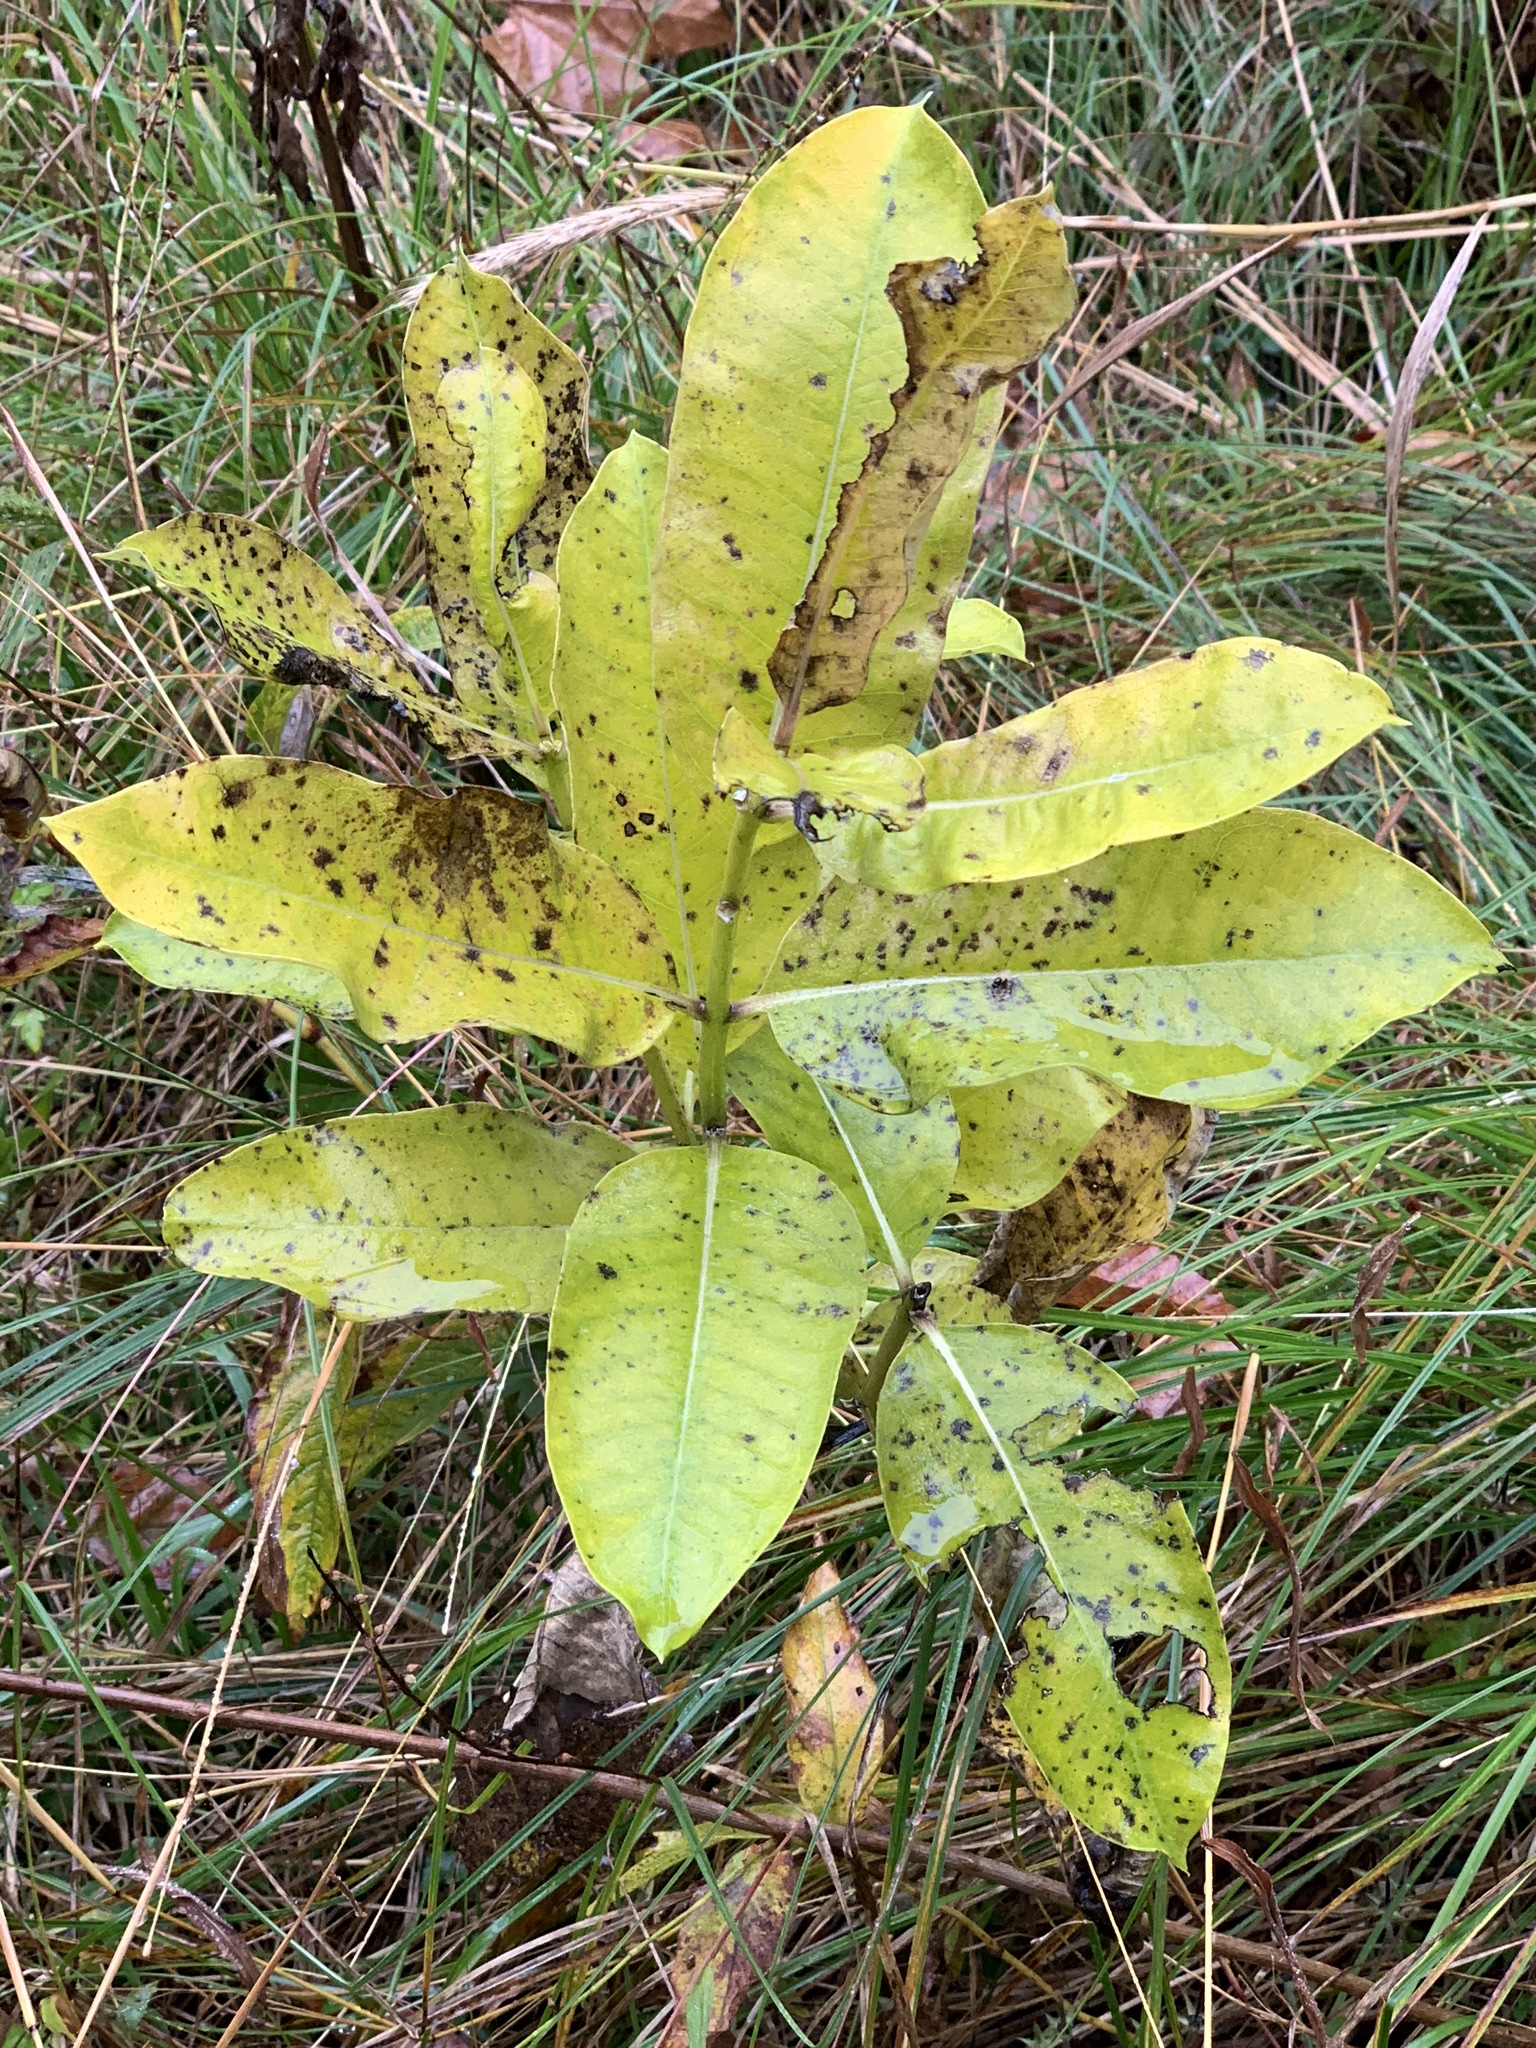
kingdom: Plantae
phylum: Tracheophyta
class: Magnoliopsida
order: Gentianales
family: Apocynaceae
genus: Asclepias
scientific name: Asclepias syriaca
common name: Common milkweed
